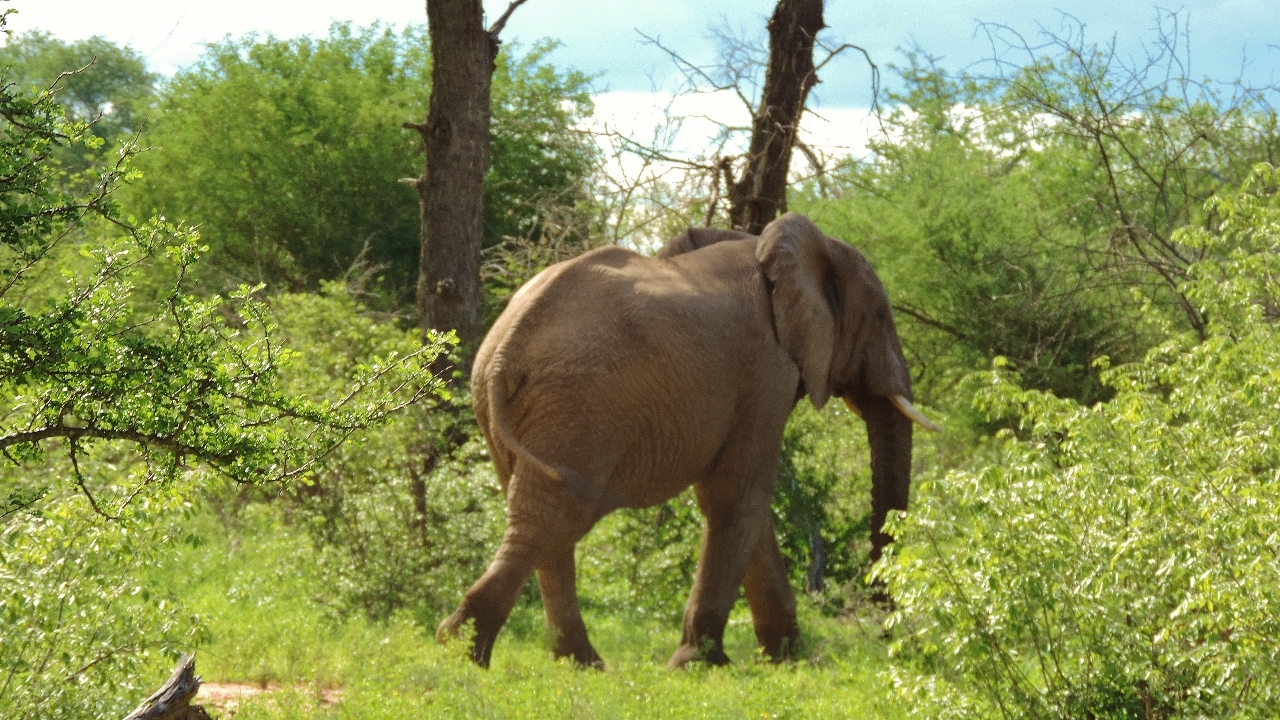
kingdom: Animalia
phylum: Chordata
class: Mammalia
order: Proboscidea
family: Elephantidae
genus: Loxodonta
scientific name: Loxodonta africana
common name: African elephant
